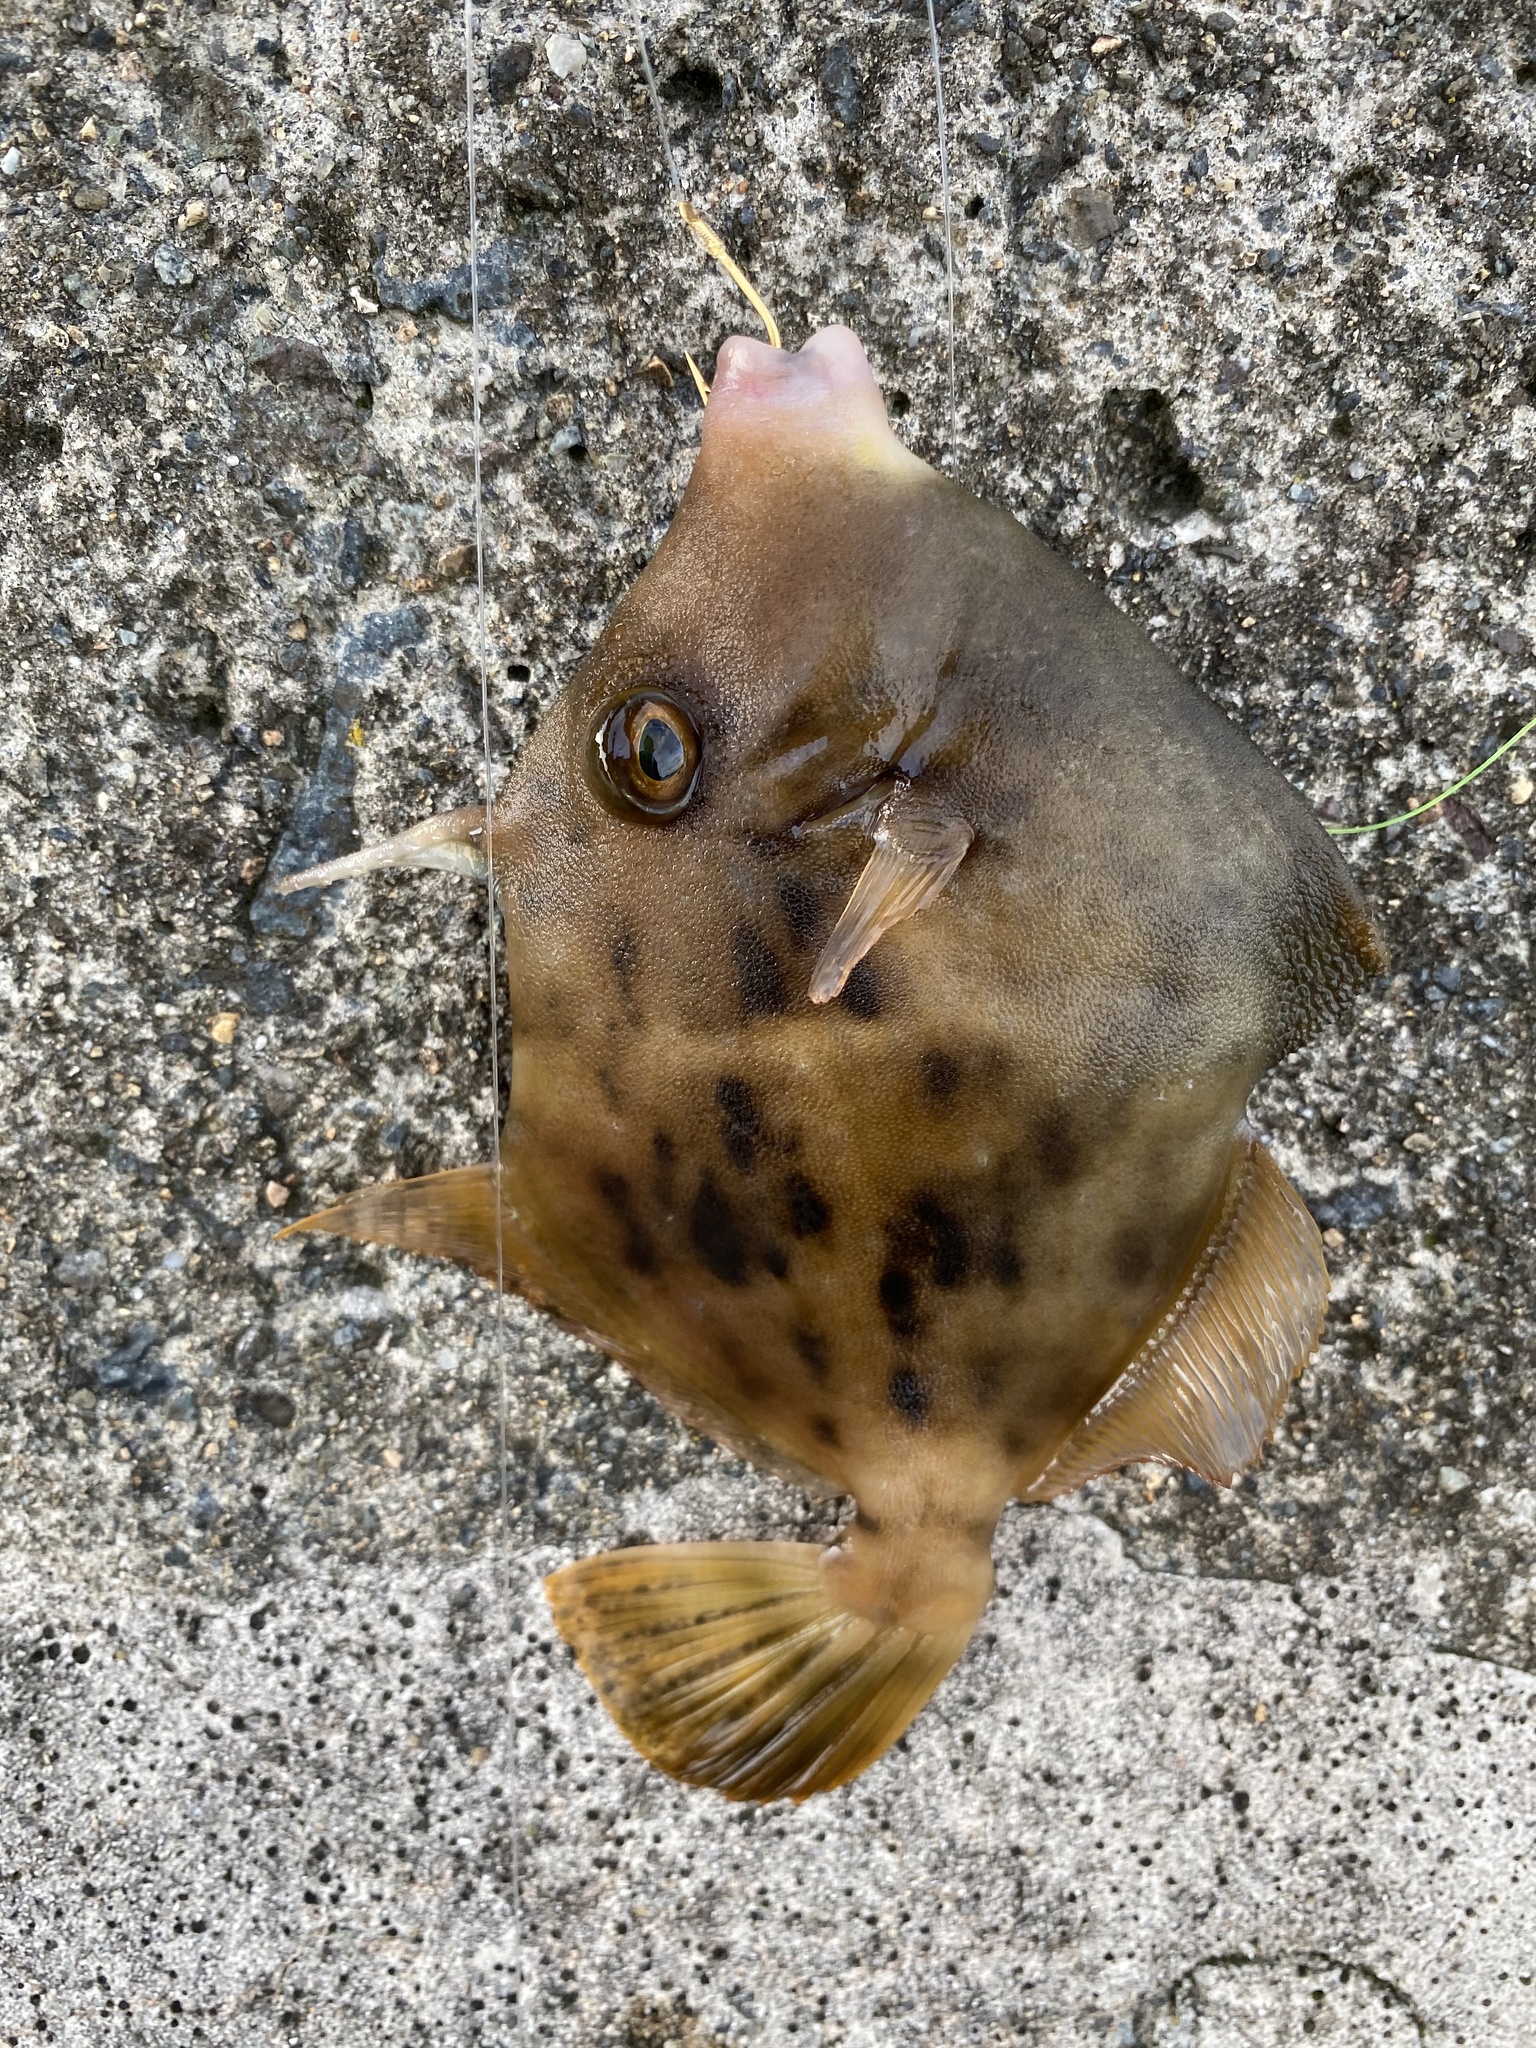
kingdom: Animalia
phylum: Chordata
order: Tetraodontiformes
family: Monacanthidae
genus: Stephanolepis
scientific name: Stephanolepis cirrhifer
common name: Fringed leatherjacket
